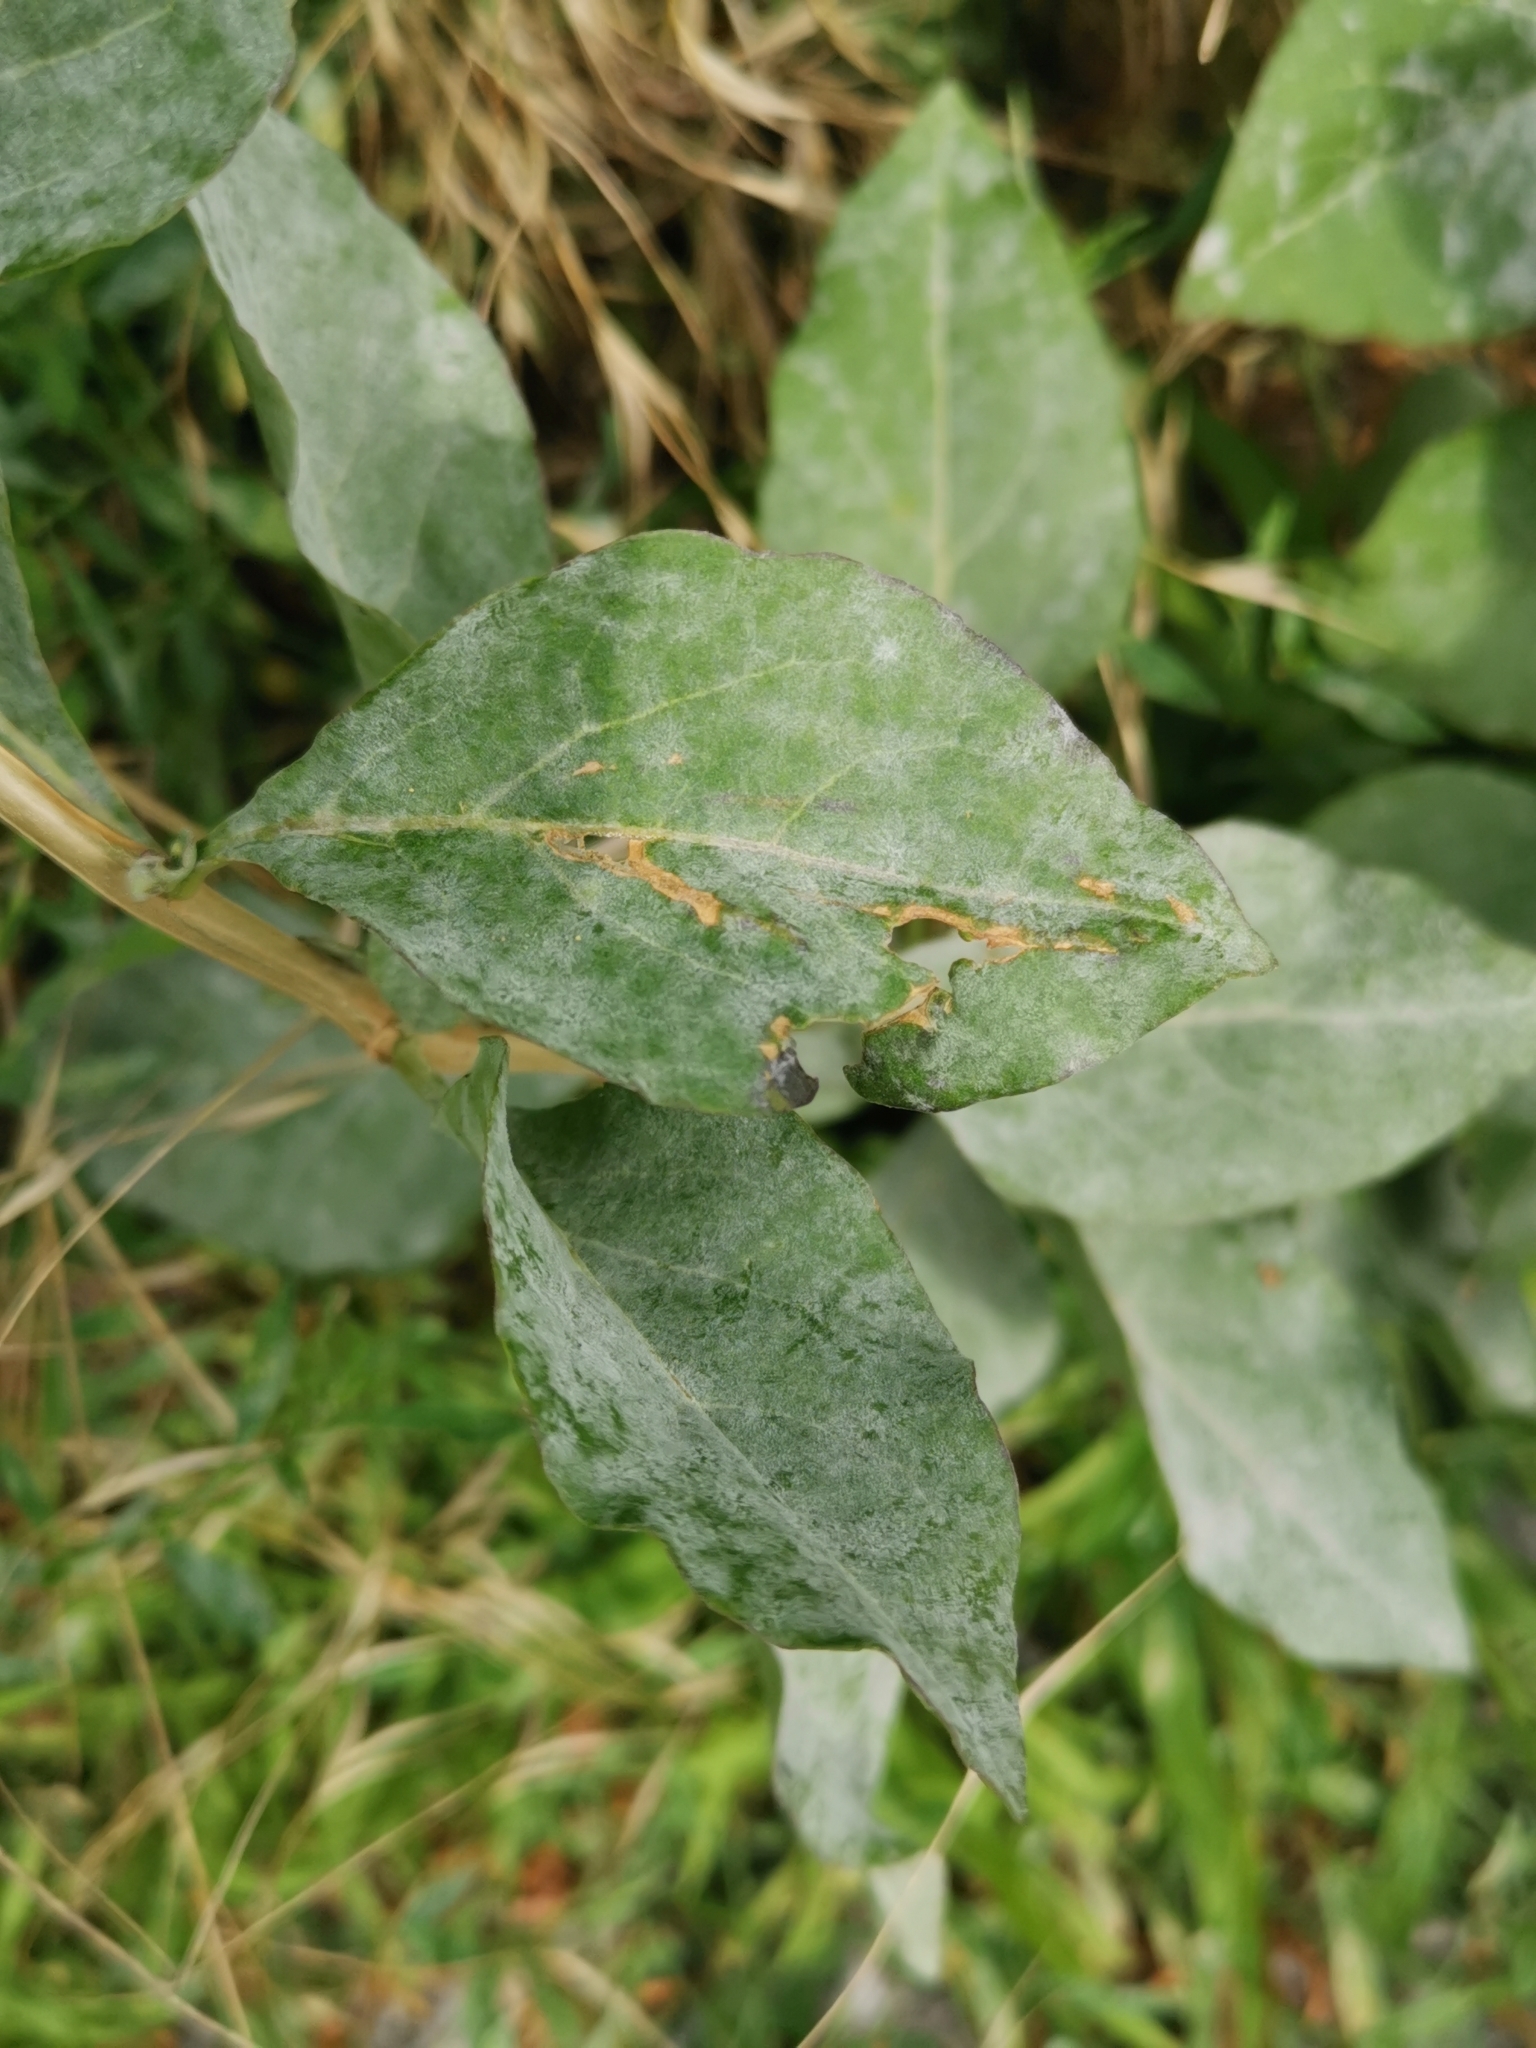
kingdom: Fungi
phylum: Ascomycota
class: Leotiomycetes
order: Helotiales
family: Erysiphaceae
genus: Erysiphe
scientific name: Erysiphe mougeotii
